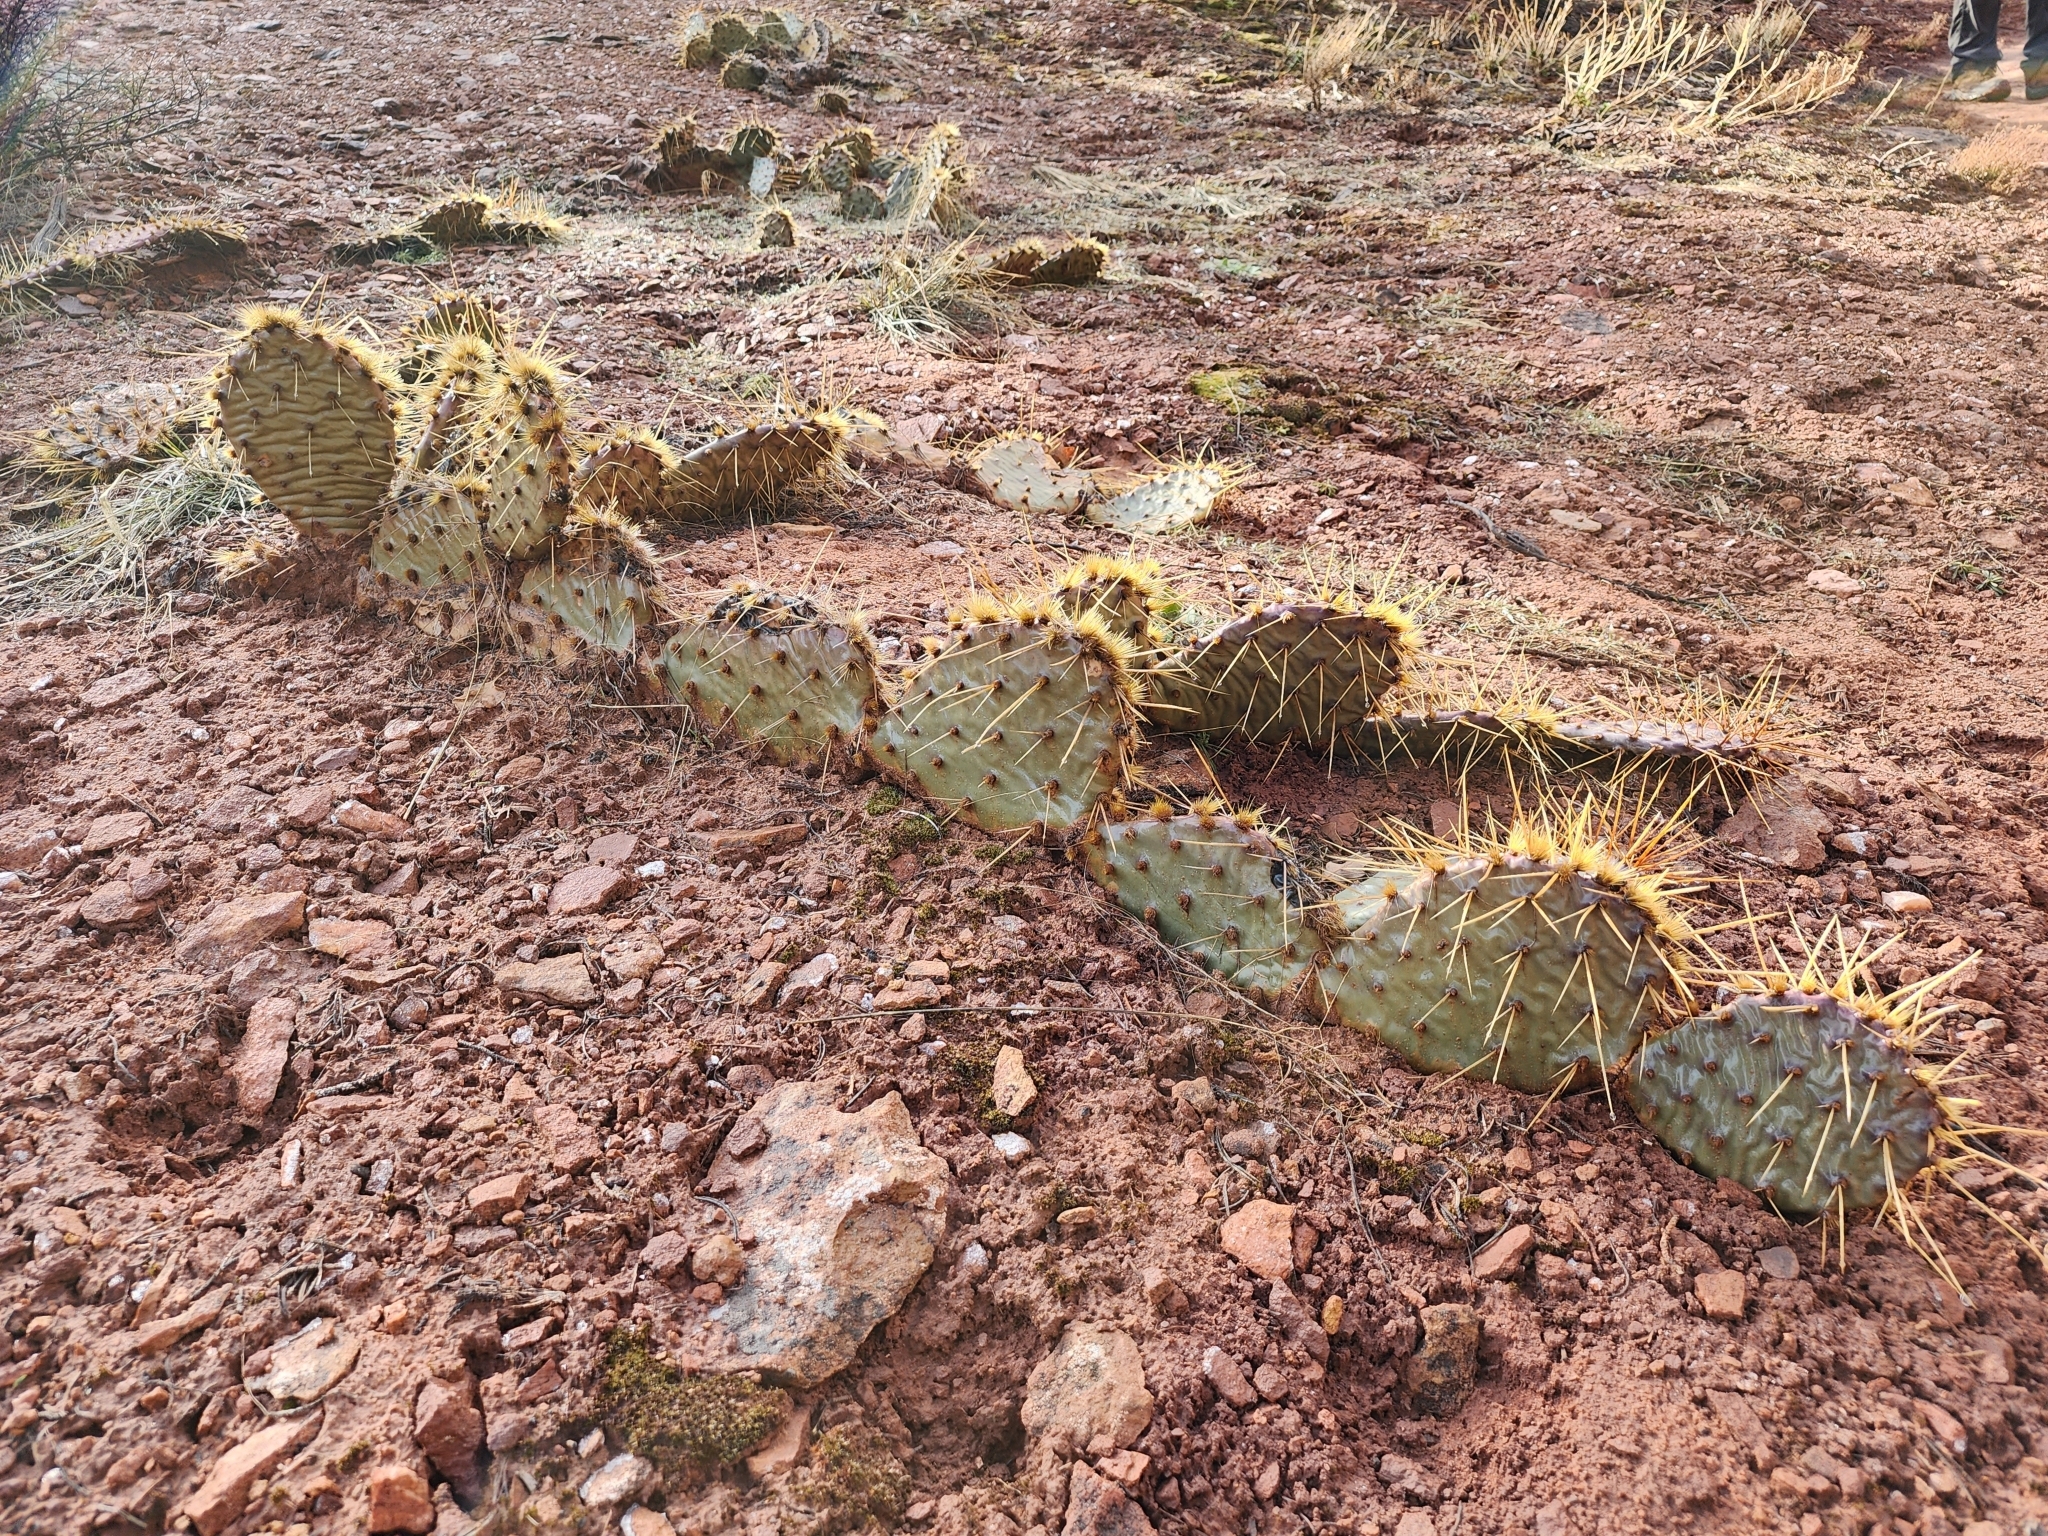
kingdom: Plantae
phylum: Tracheophyta
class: Magnoliopsida
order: Caryophyllales
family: Cactaceae
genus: Opuntia
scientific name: Opuntia phaeacantha
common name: New mexico prickly-pear
